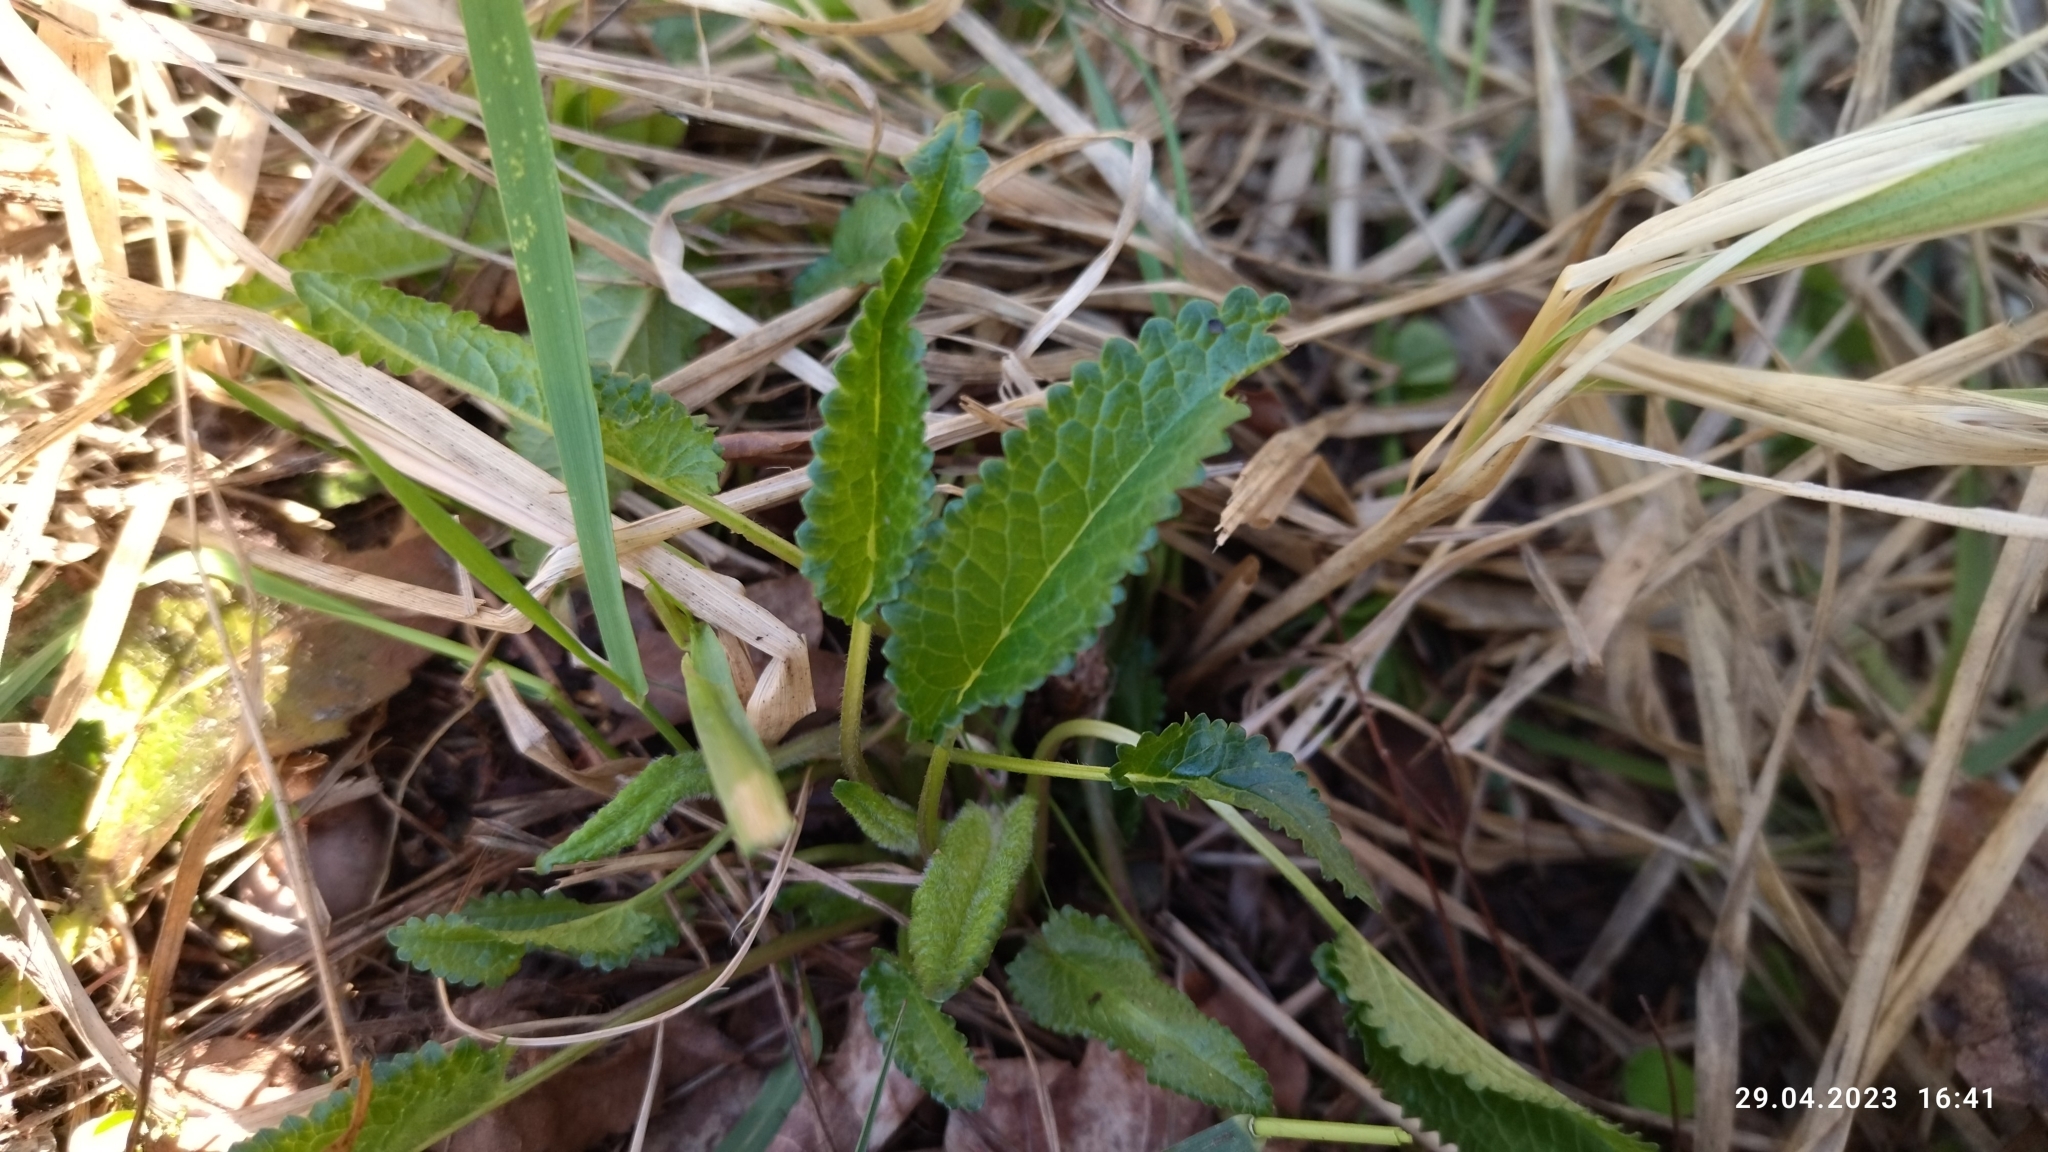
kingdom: Plantae
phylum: Tracheophyta
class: Magnoliopsida
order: Lamiales
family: Lamiaceae
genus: Betonica
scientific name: Betonica officinalis
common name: Bishop's-wort
